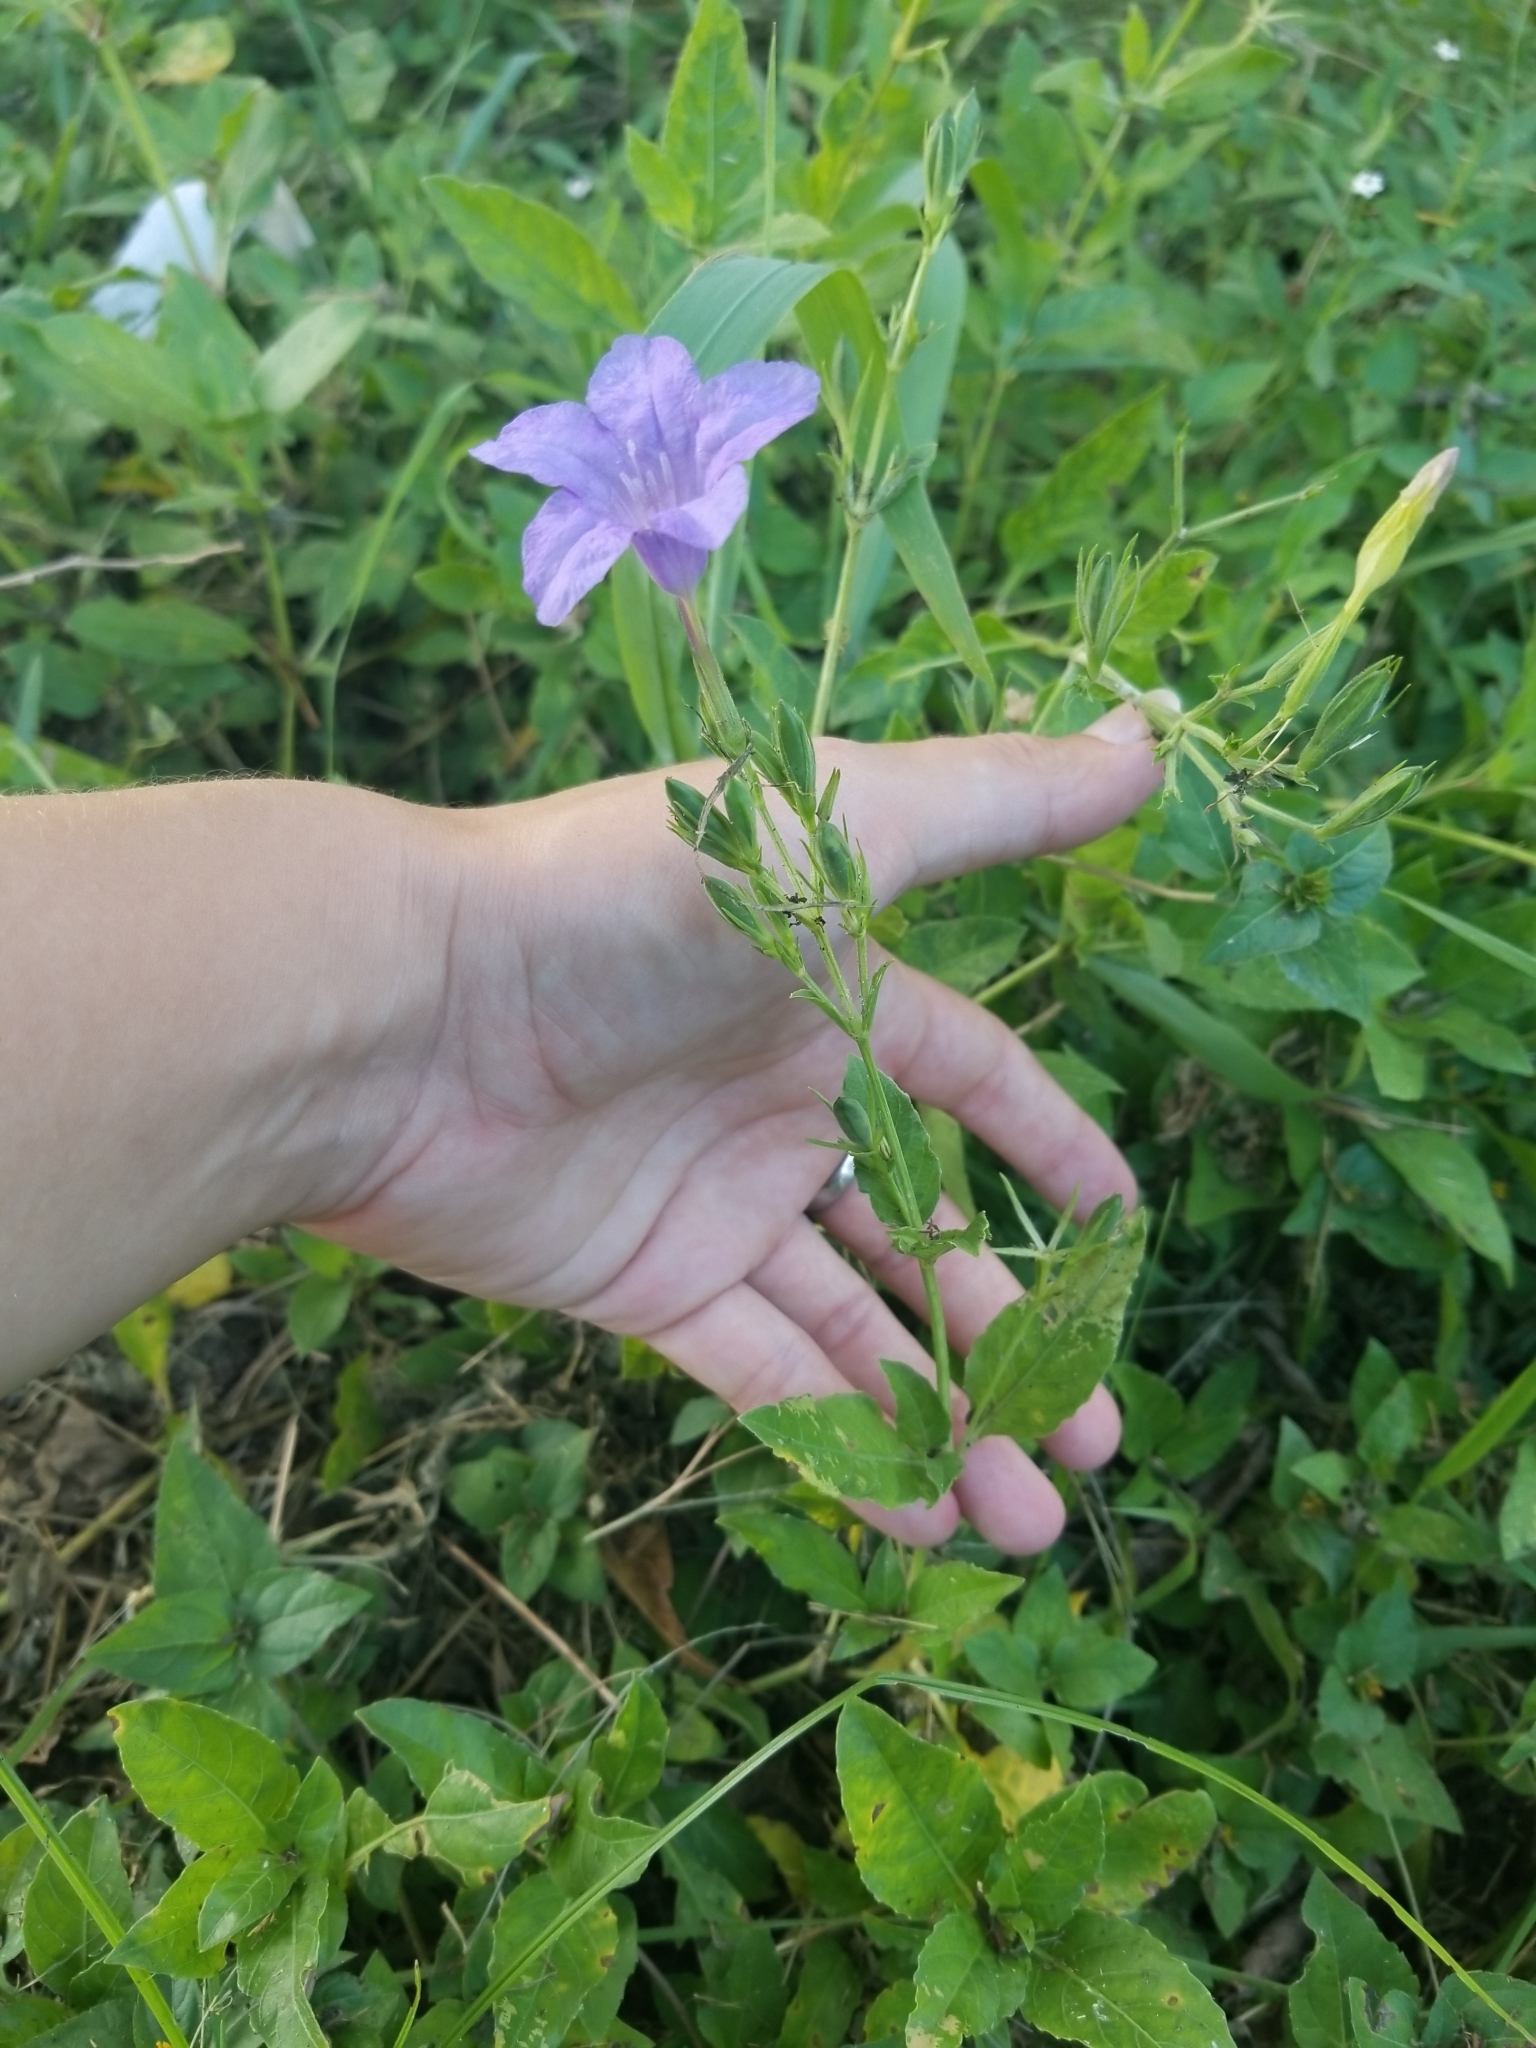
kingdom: Plantae
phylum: Tracheophyta
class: Magnoliopsida
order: Lamiales
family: Acanthaceae
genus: Ruellia
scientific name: Ruellia ciliatiflora
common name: Hairyflower wild petunia
